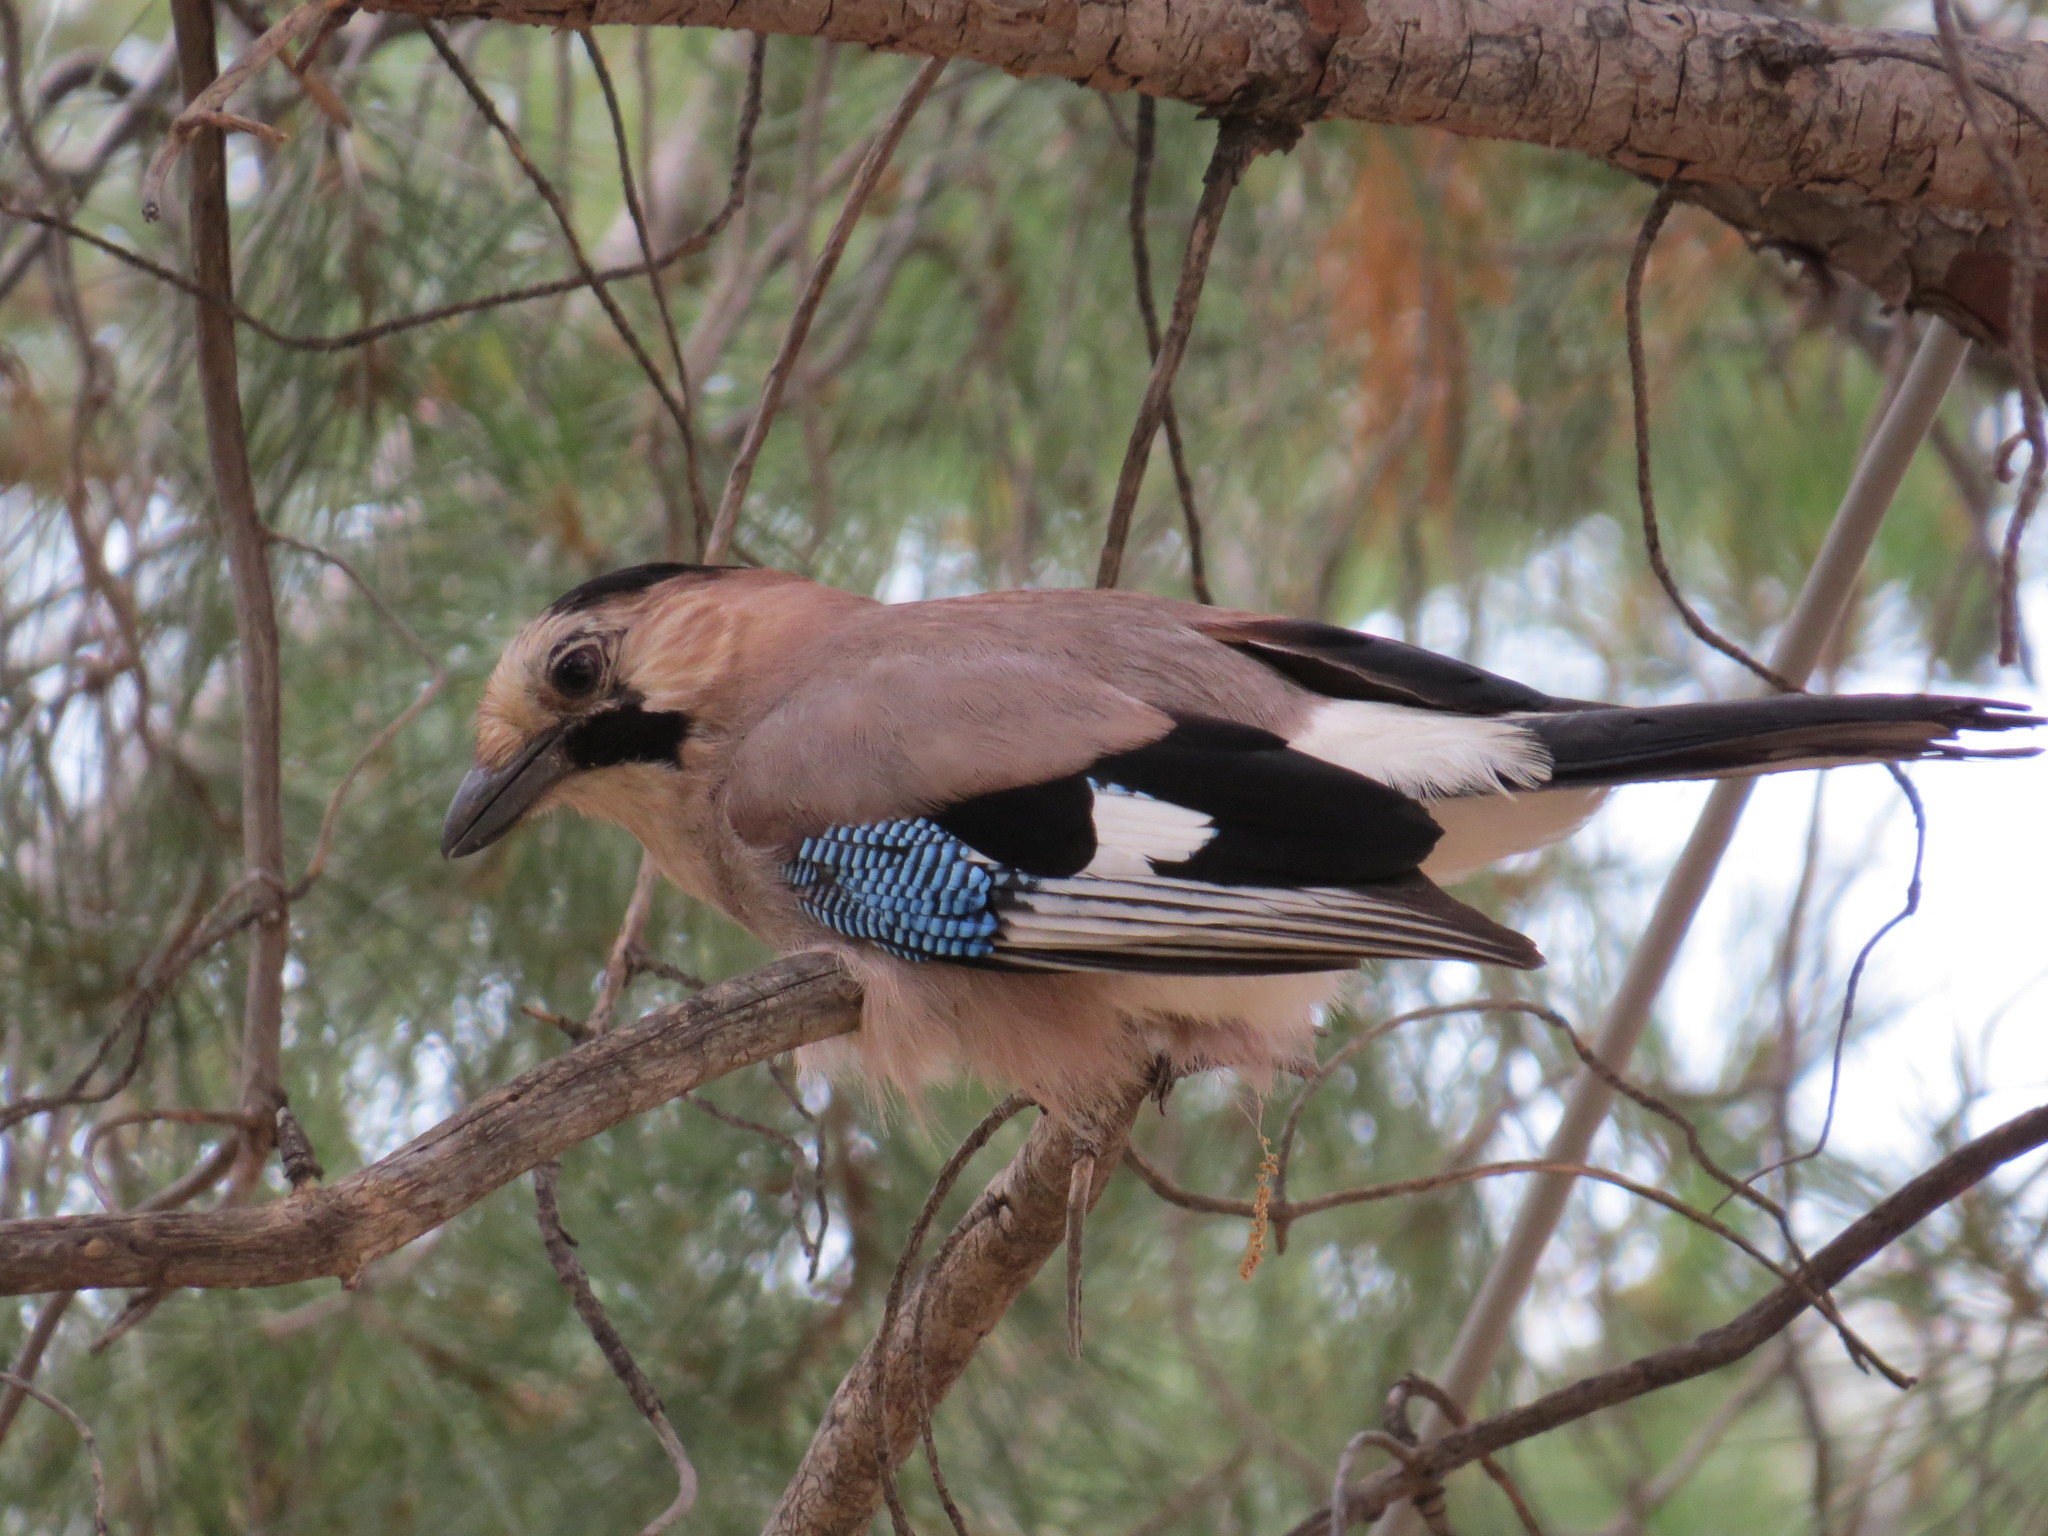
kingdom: Animalia
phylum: Chordata
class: Aves
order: Passeriformes
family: Corvidae
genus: Garrulus
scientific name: Garrulus glandarius
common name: Eurasian jay
